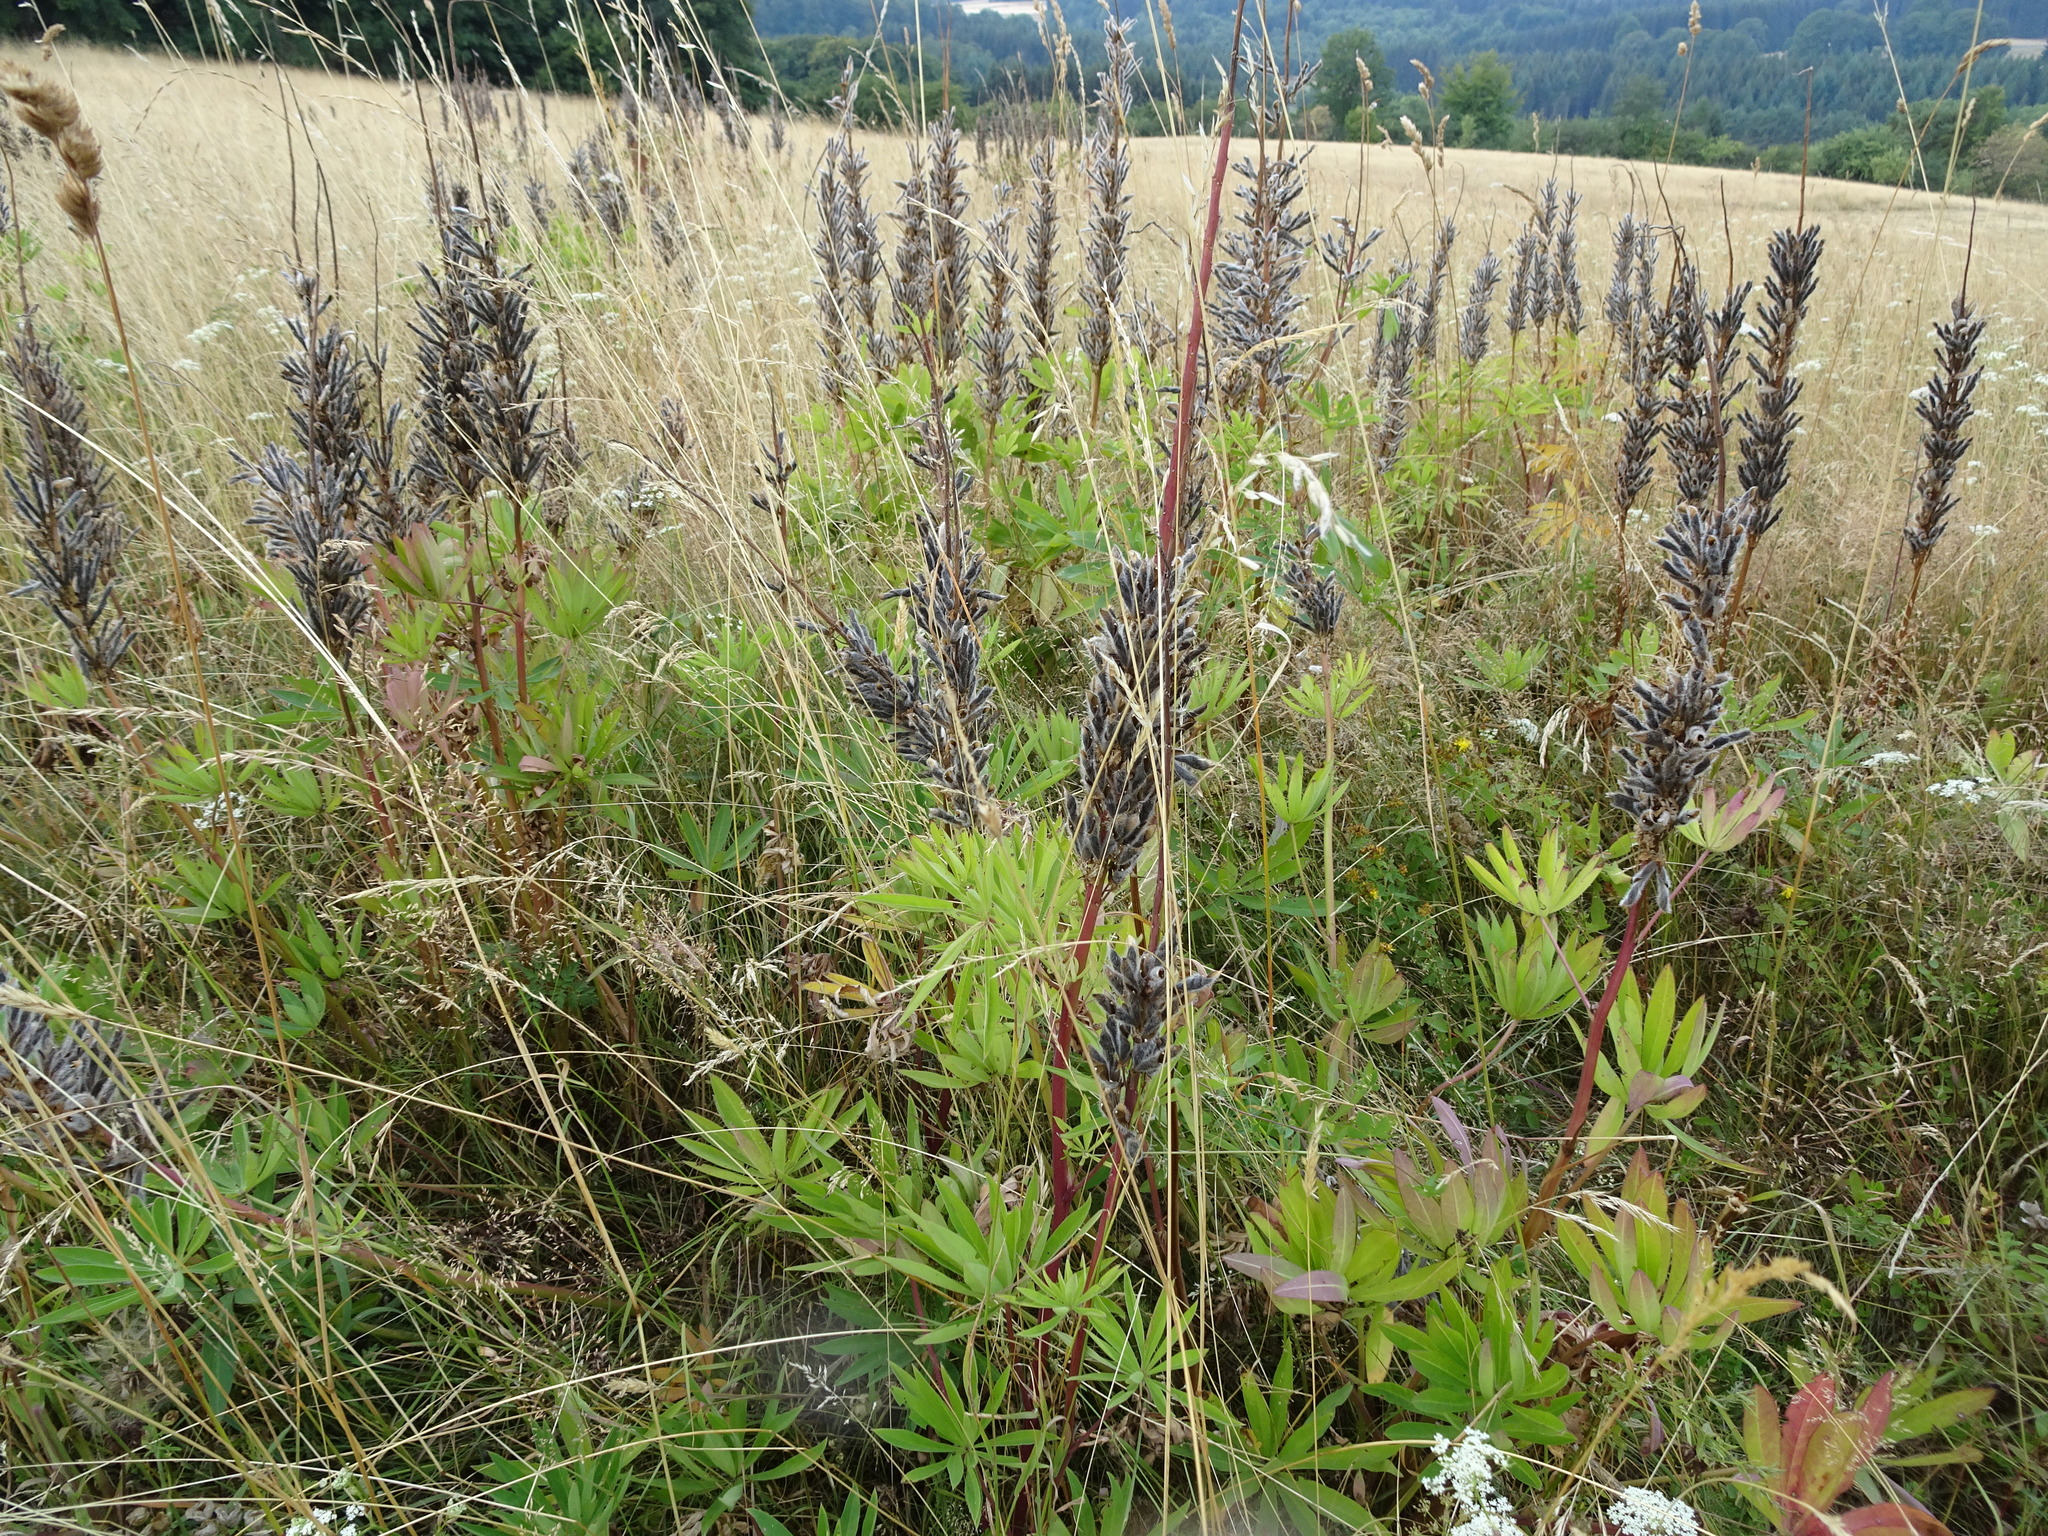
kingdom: Plantae
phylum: Tracheophyta
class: Magnoliopsida
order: Fabales
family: Fabaceae
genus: Lupinus
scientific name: Lupinus polyphyllus
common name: Garden lupin
